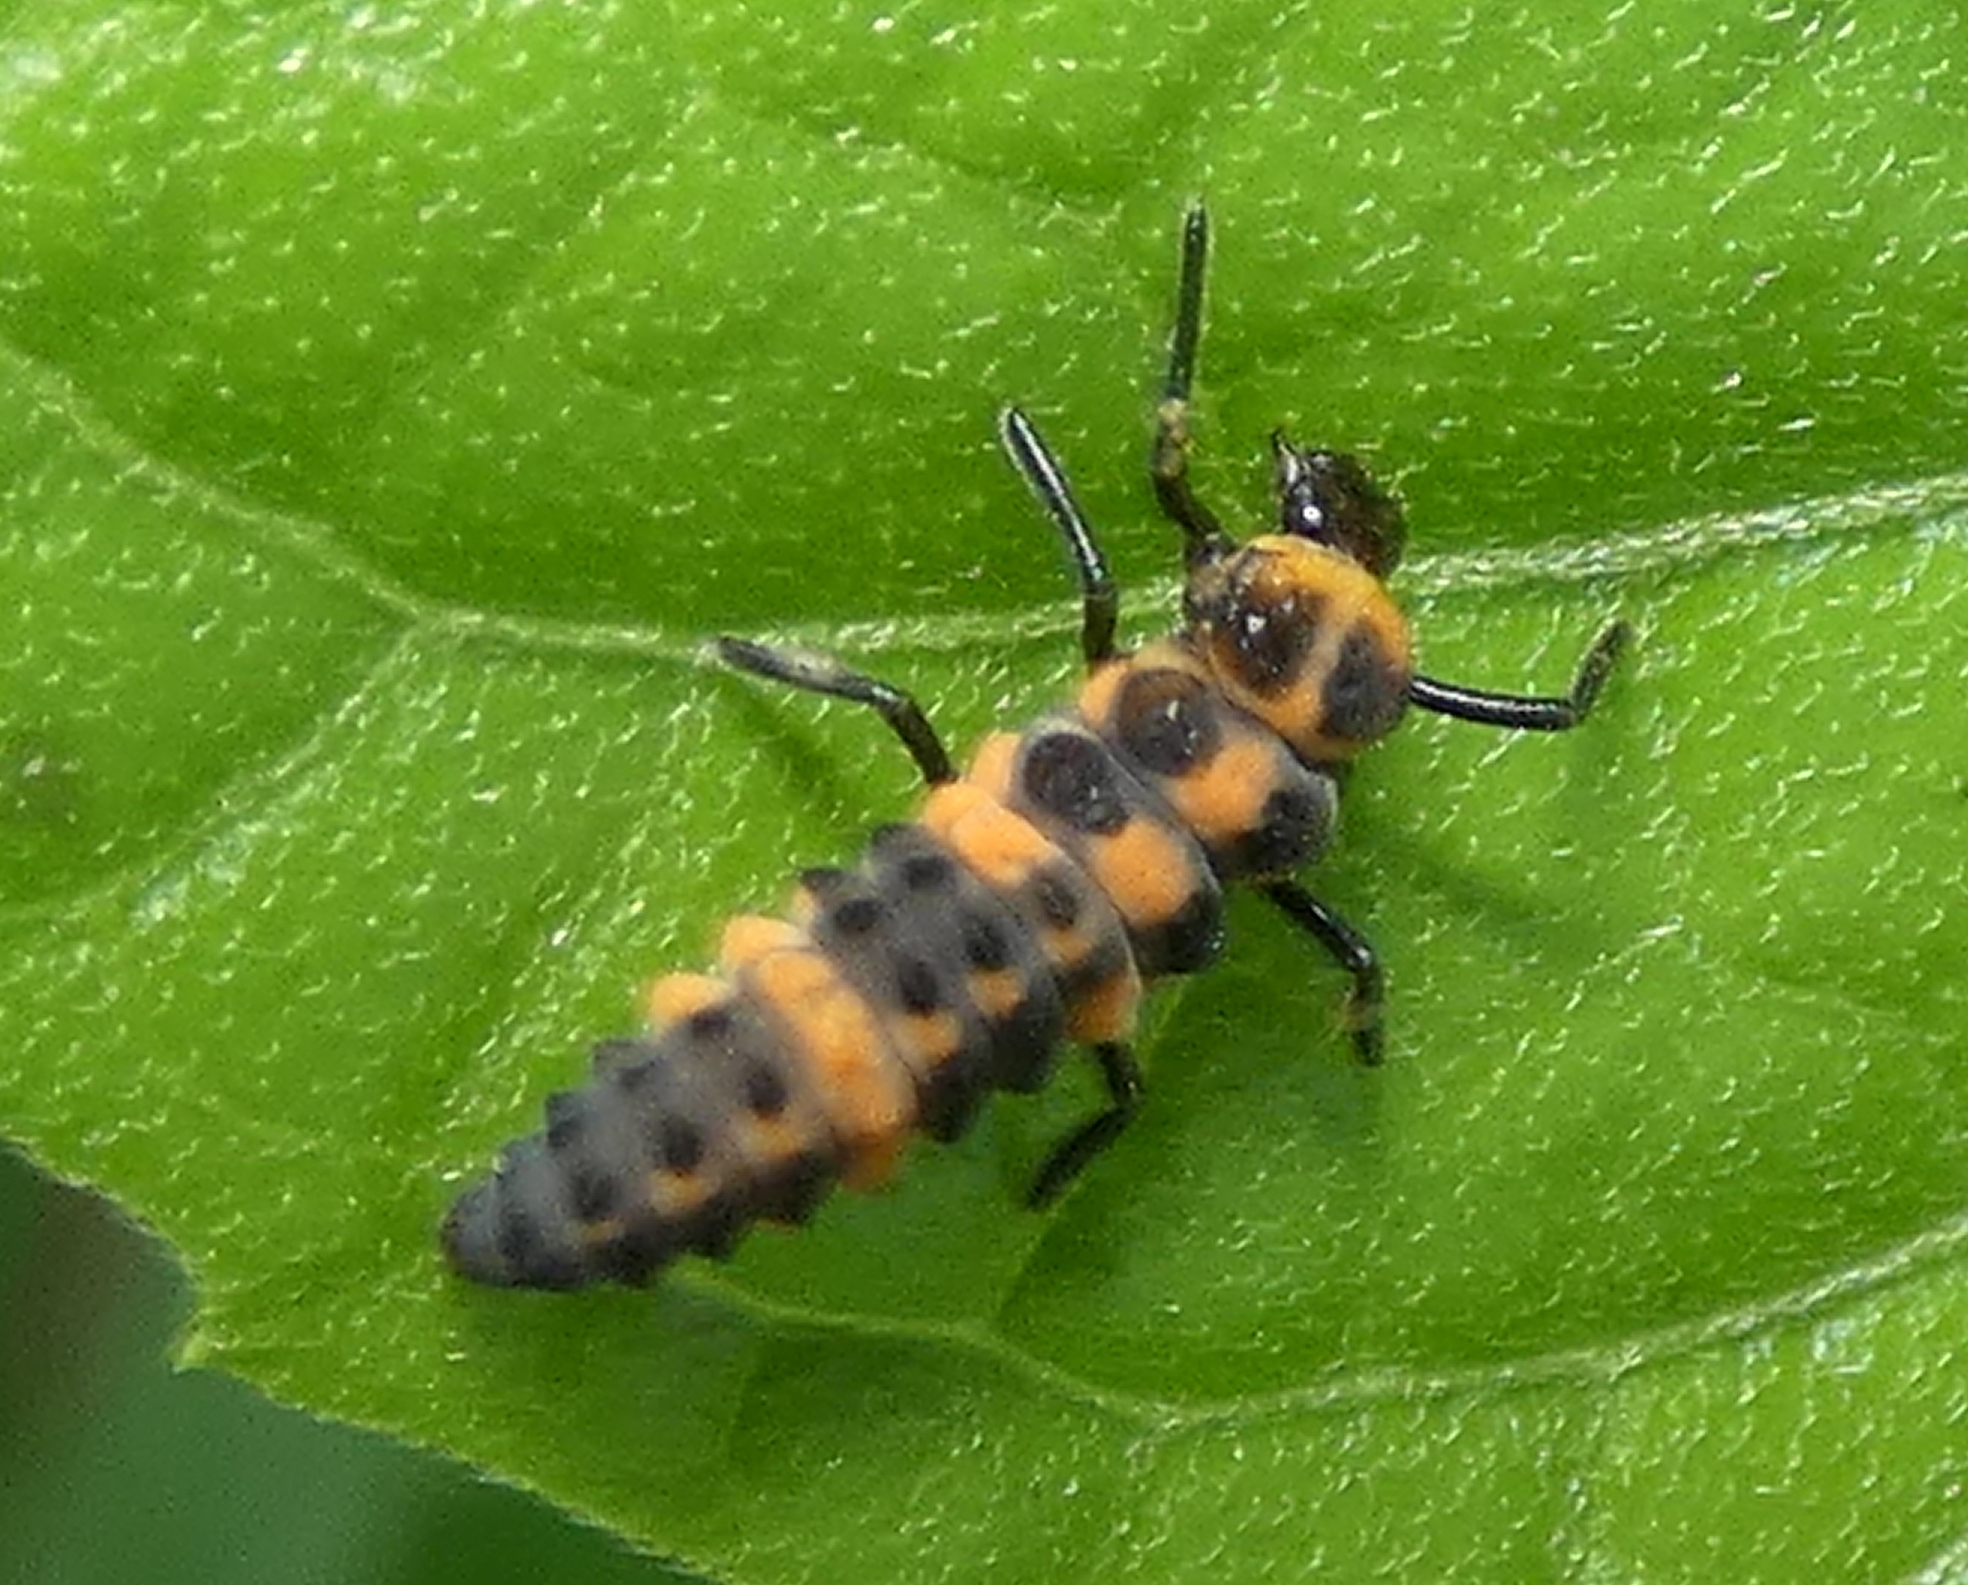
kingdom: Animalia
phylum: Arthropoda
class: Insecta
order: Coleoptera
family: Coccinellidae
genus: Cycloneda
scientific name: Cycloneda sanguinea
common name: Ladybird beetle
